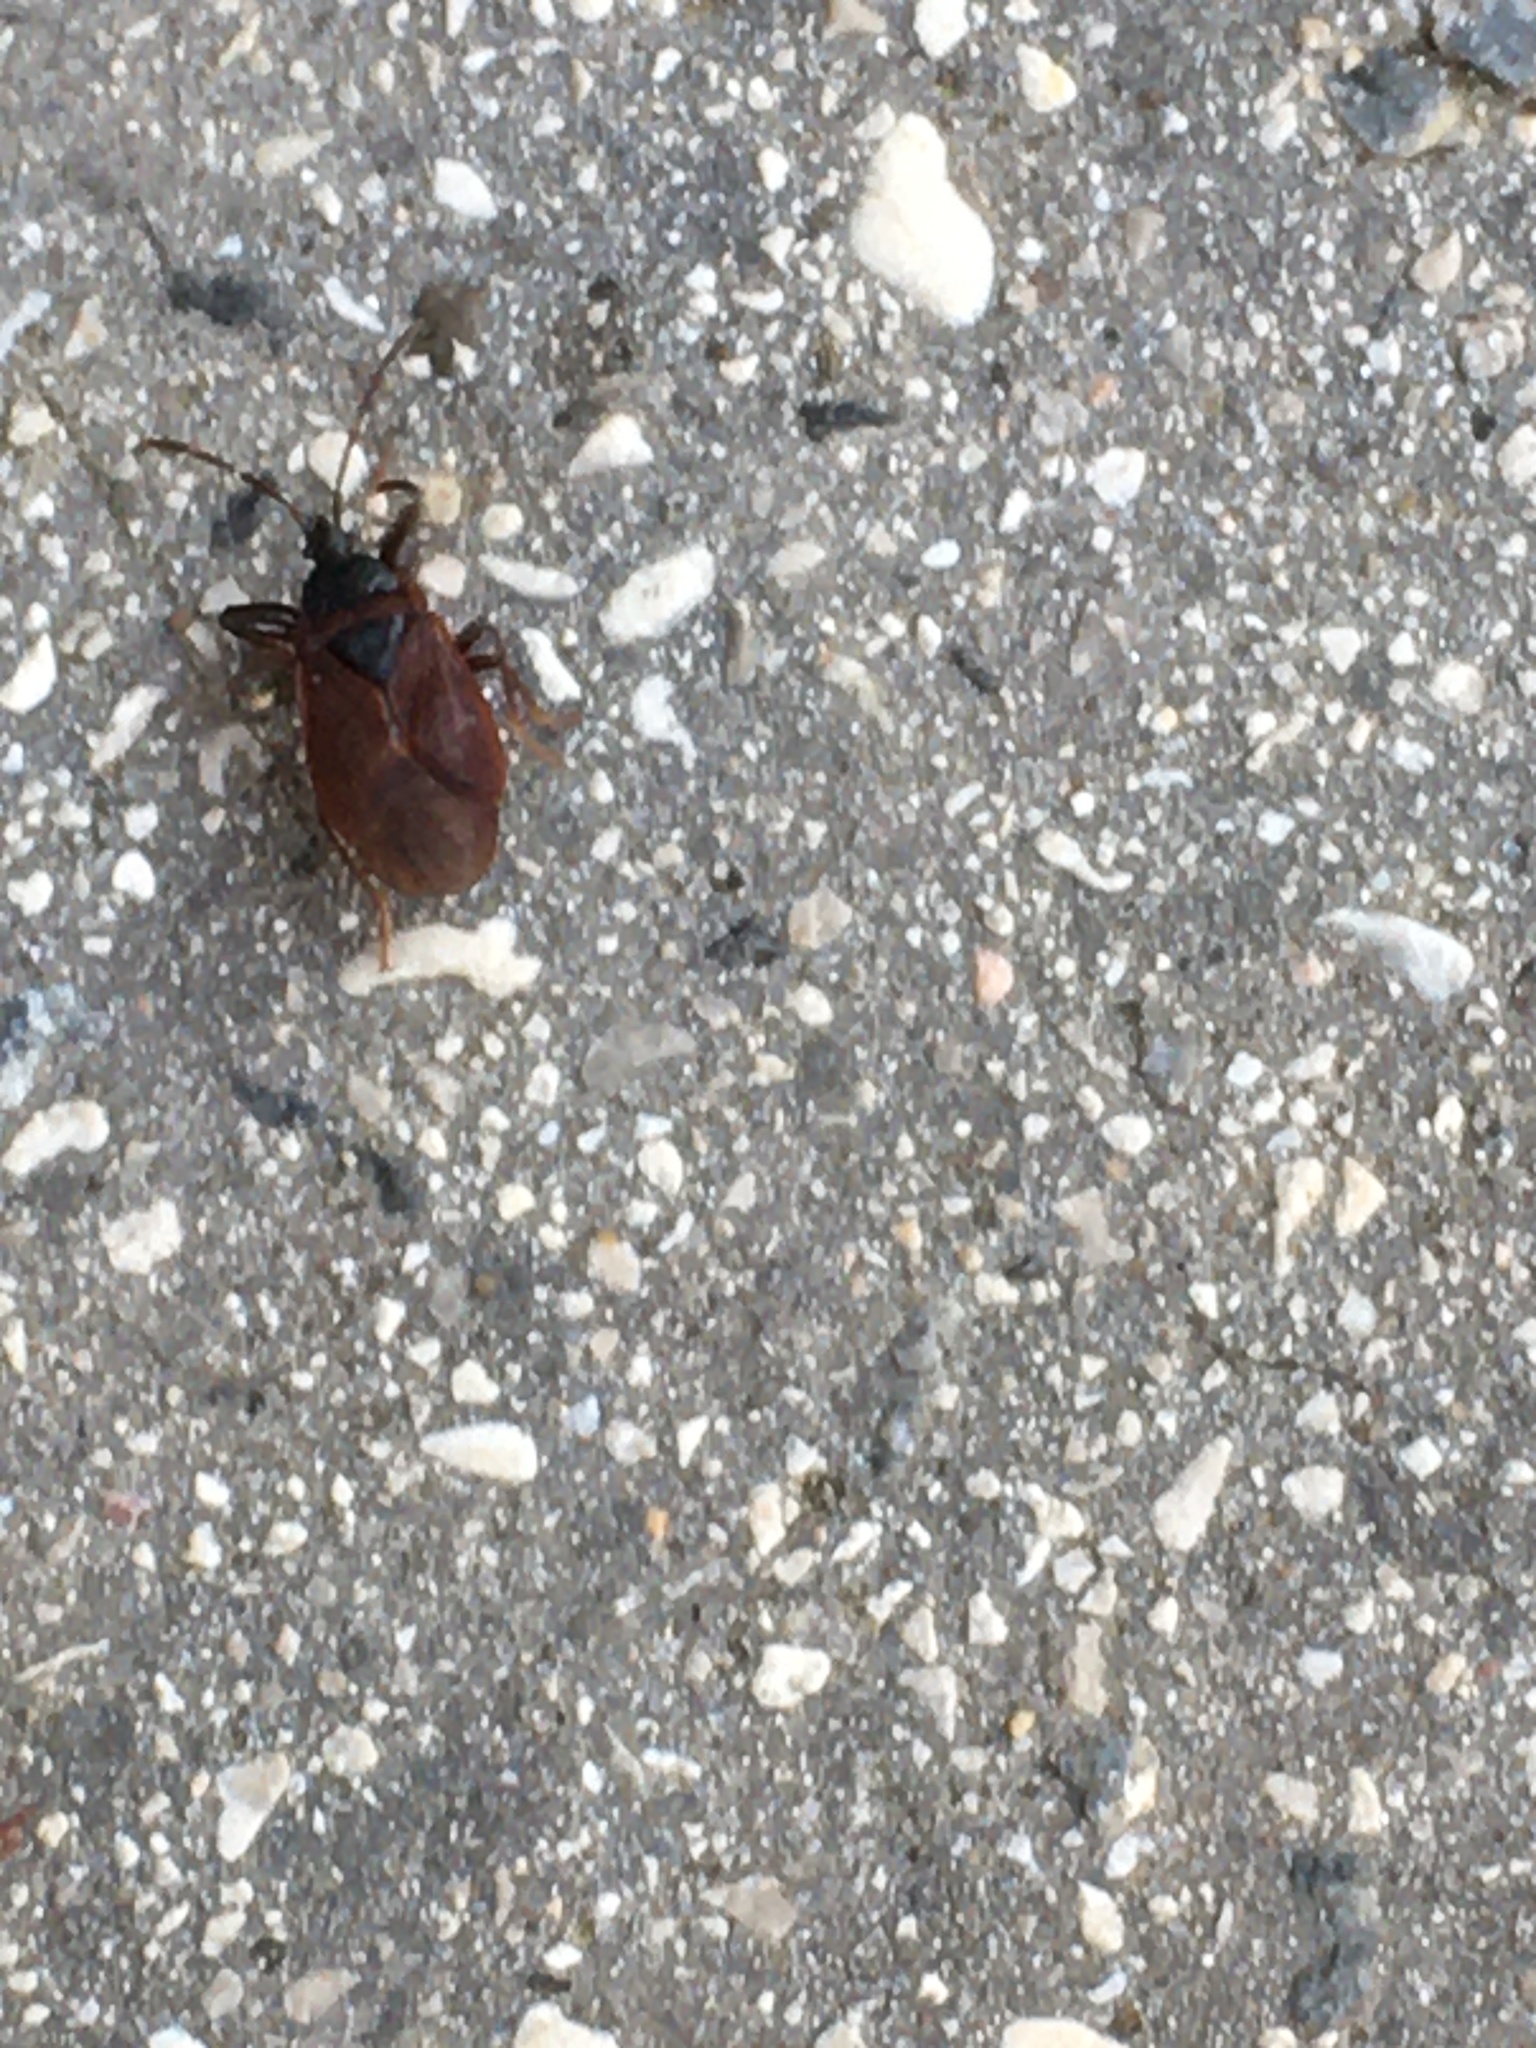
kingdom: Animalia
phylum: Arthropoda
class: Insecta
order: Hemiptera
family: Rhyparochromidae
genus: Gastrodes
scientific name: Gastrodes grossipes
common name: Pine cone bug
